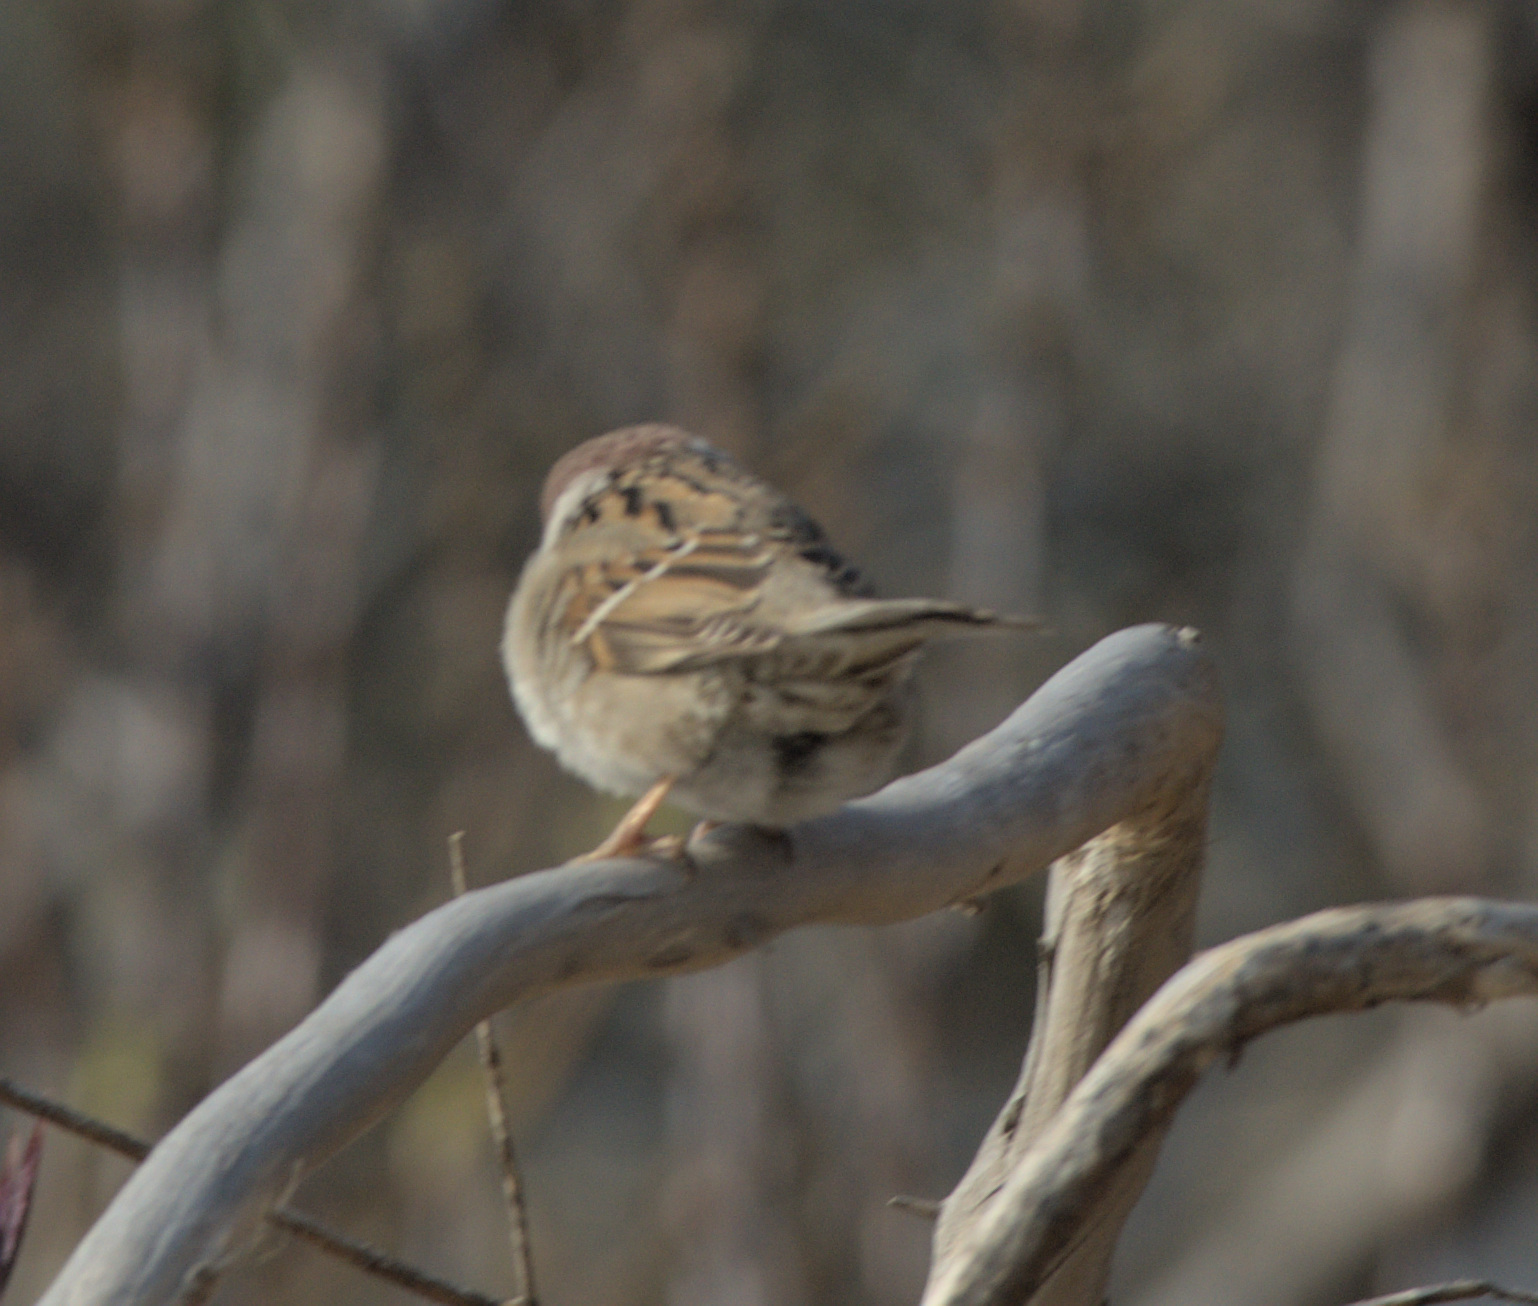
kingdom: Animalia
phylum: Chordata
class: Aves
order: Passeriformes
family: Passeridae
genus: Passer
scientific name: Passer montanus
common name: Eurasian tree sparrow
